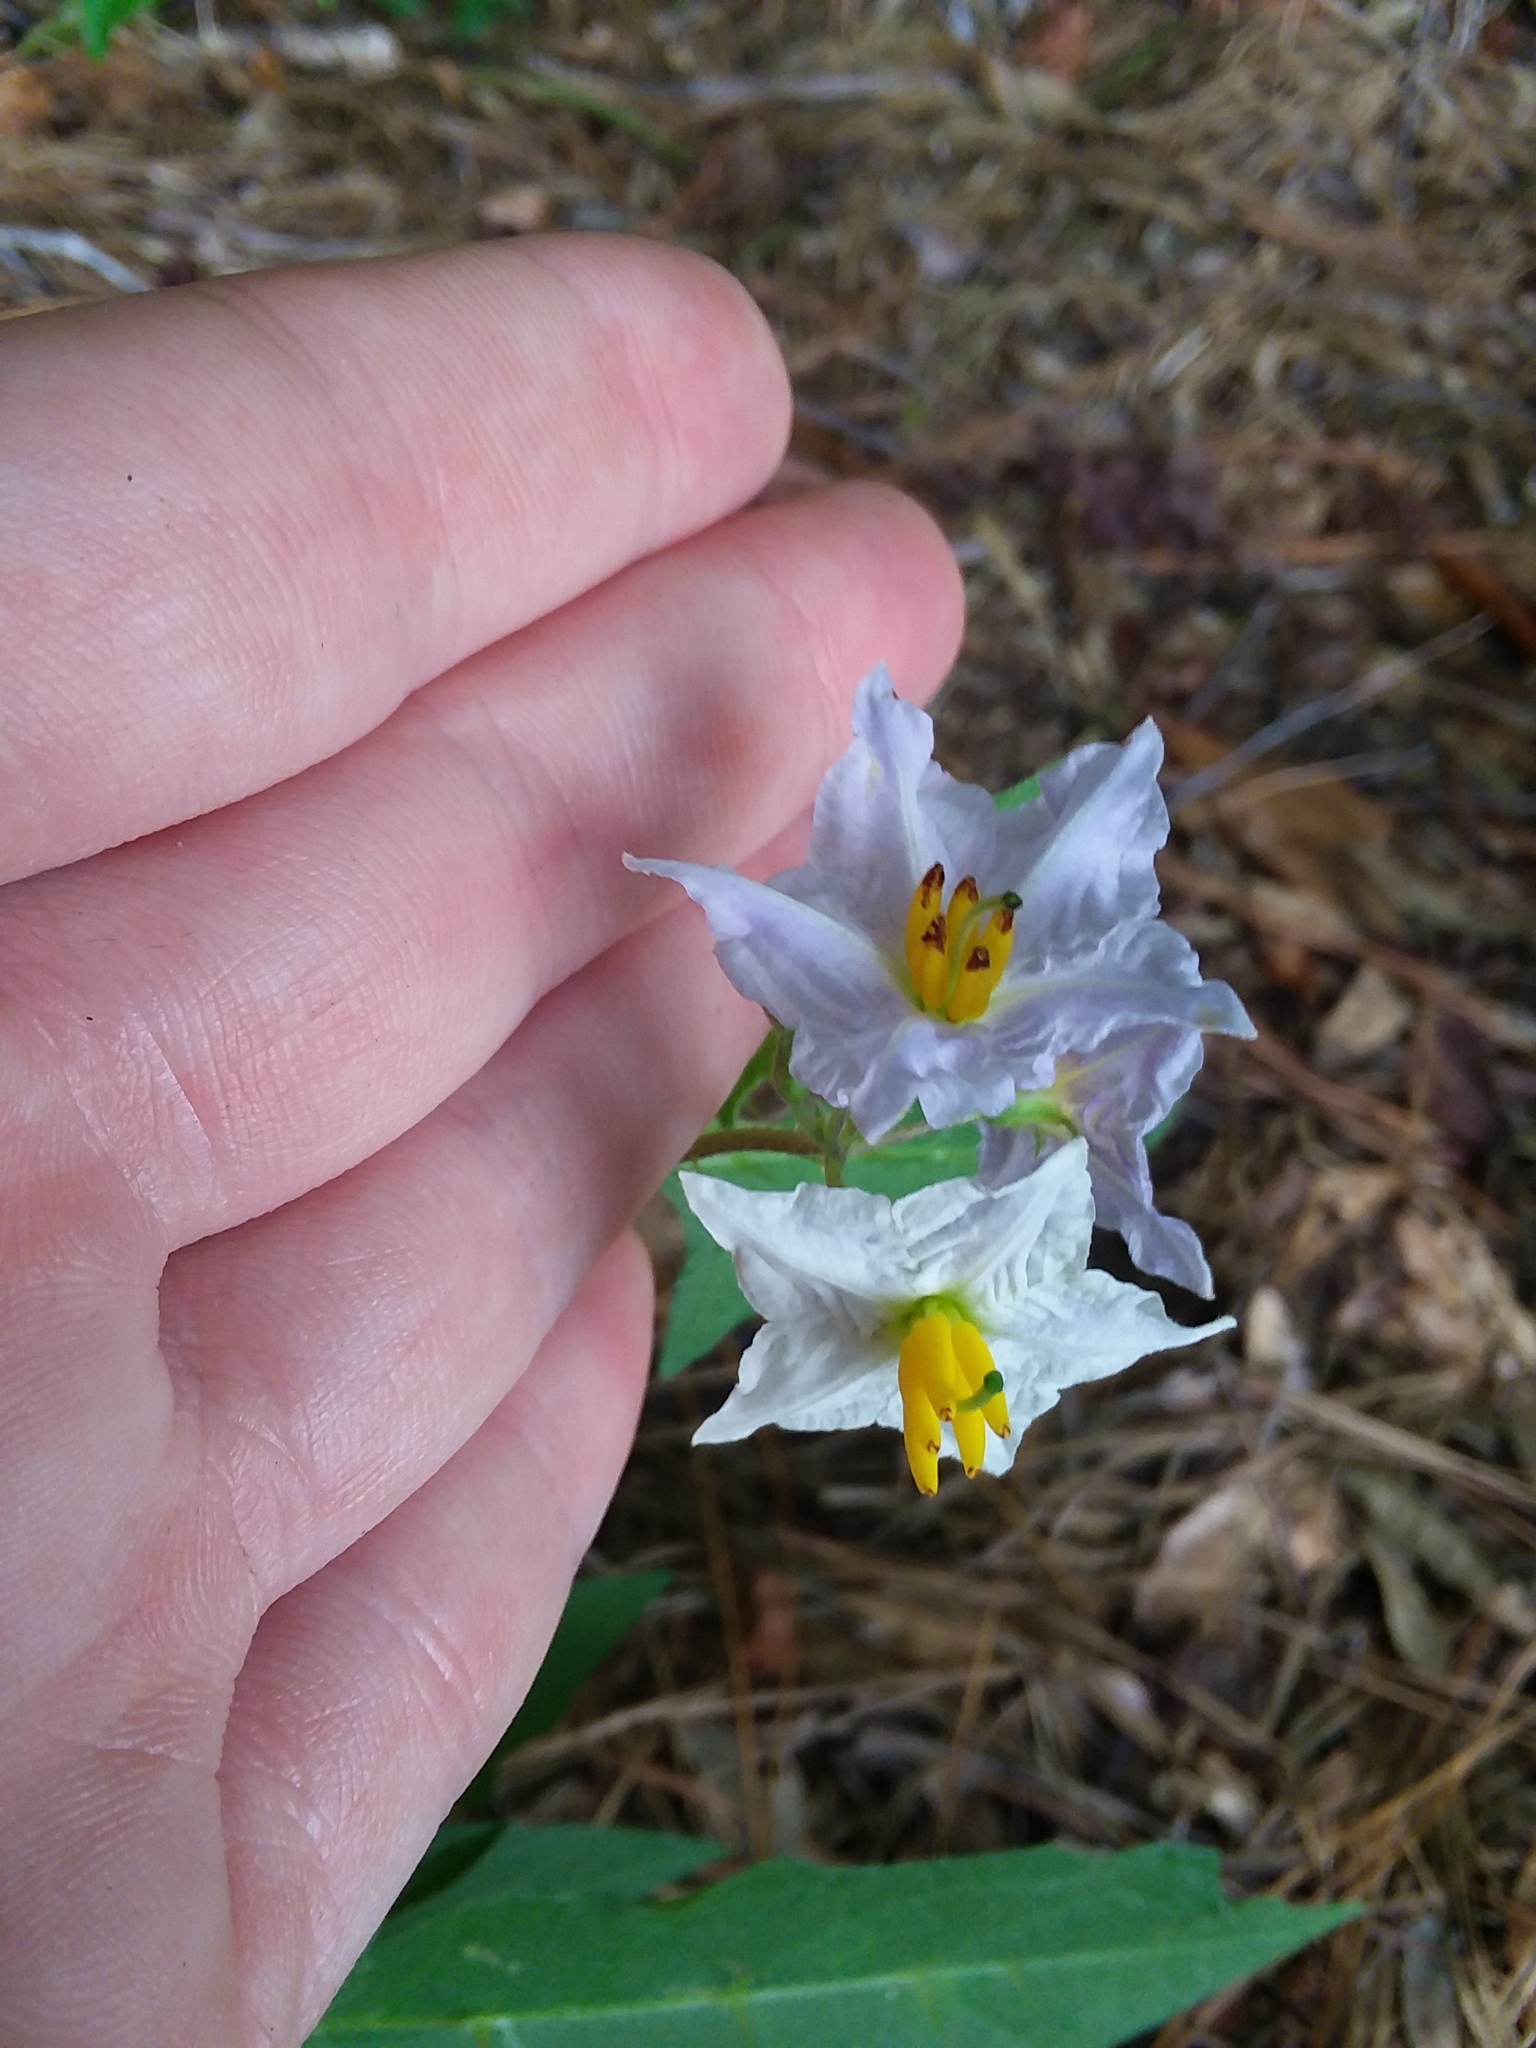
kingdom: Plantae
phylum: Tracheophyta
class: Magnoliopsida
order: Solanales
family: Solanaceae
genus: Solanum
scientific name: Solanum carolinense
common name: Horse-nettle
